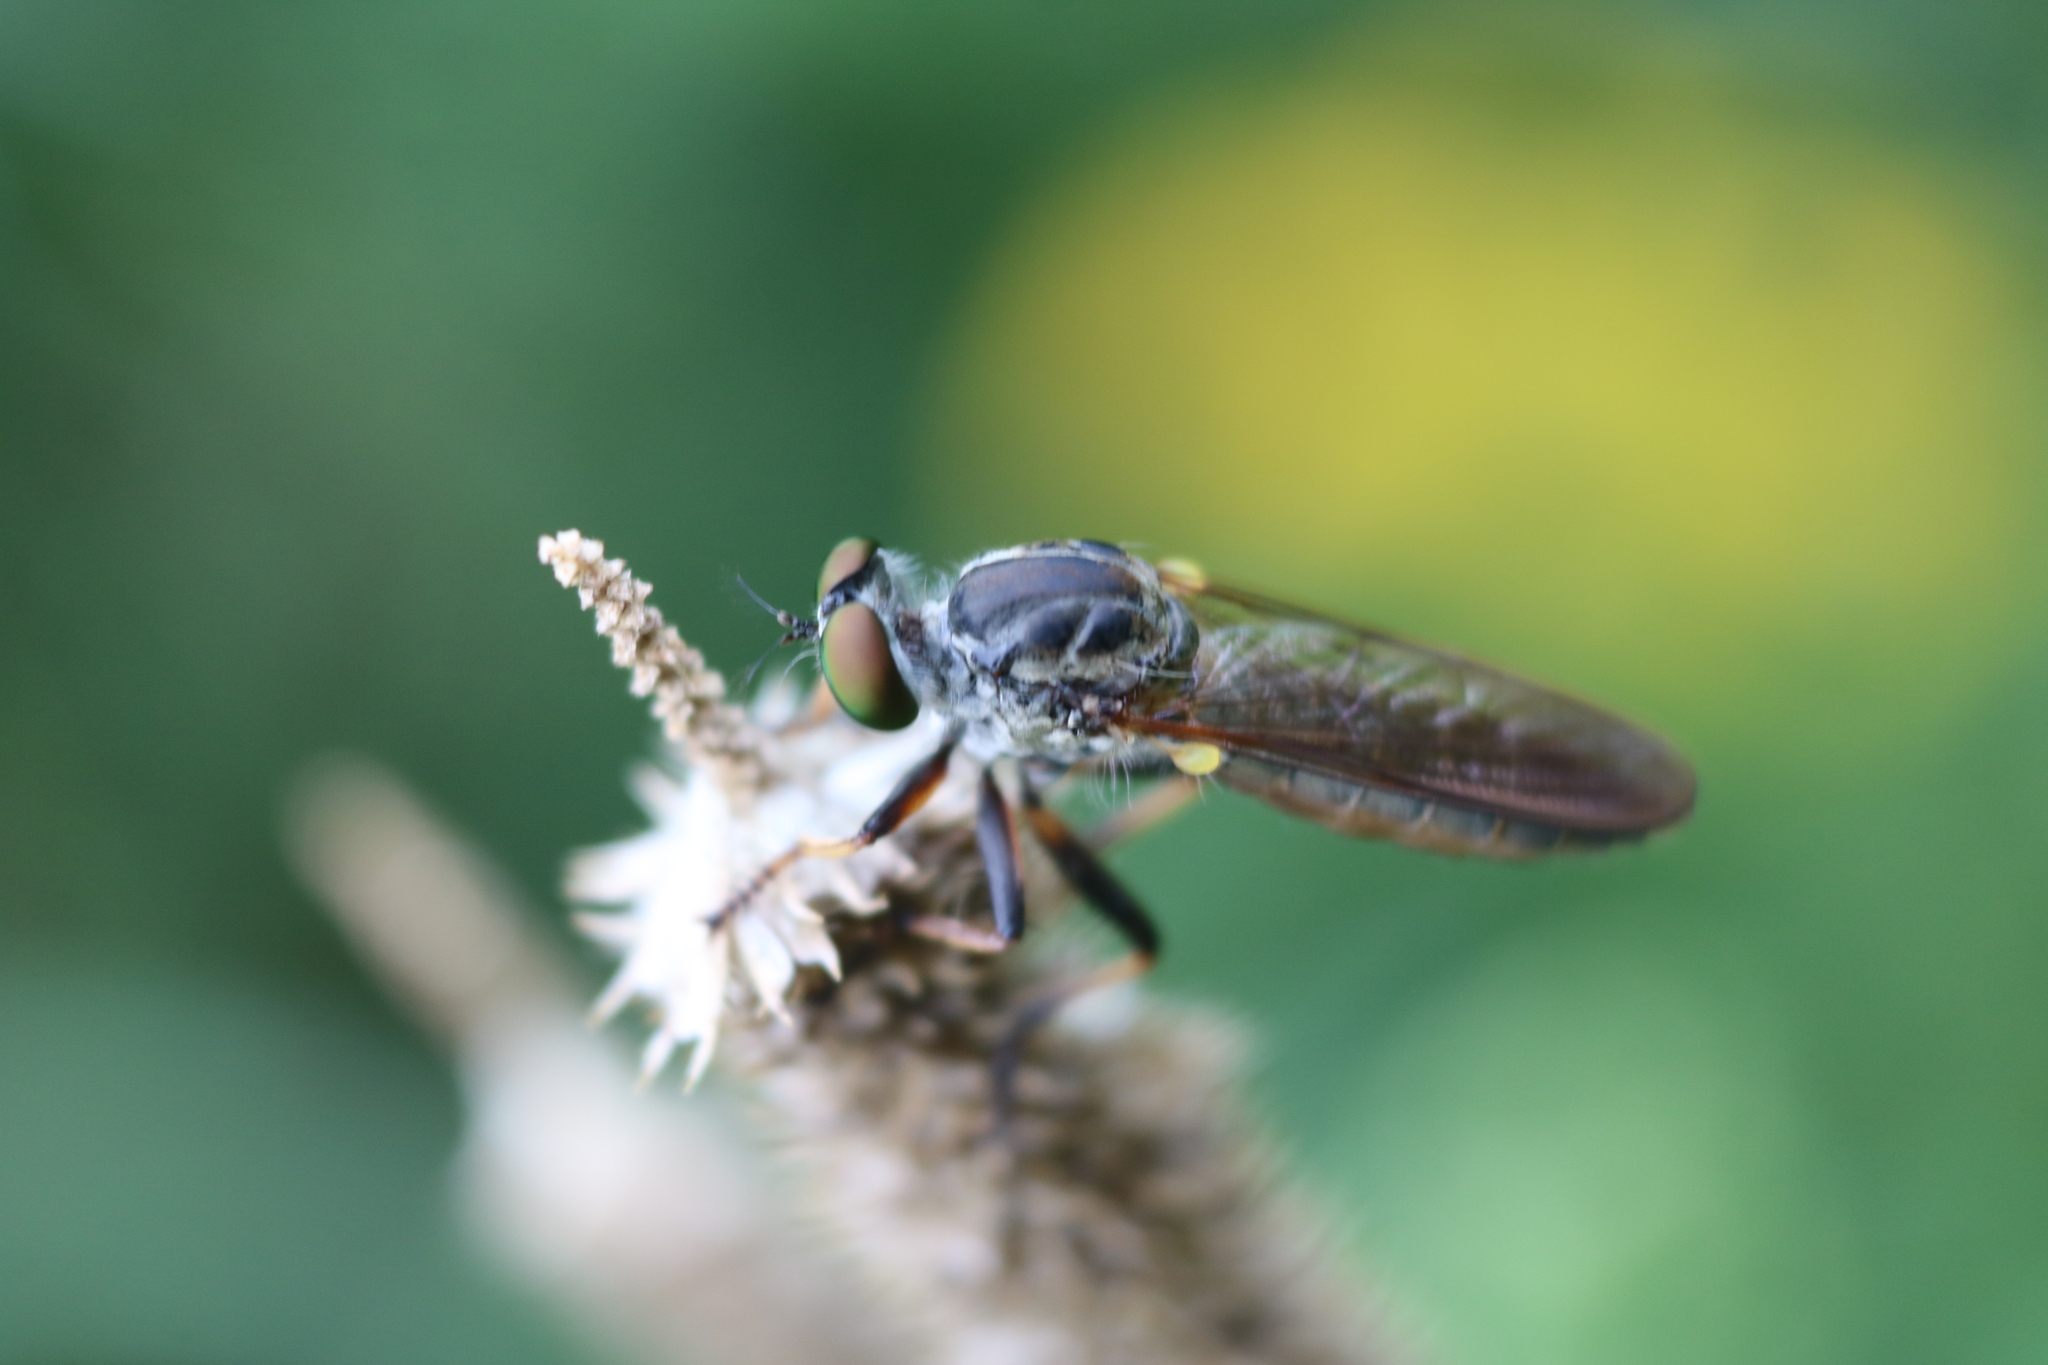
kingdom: Animalia
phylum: Arthropoda
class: Insecta
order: Diptera
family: Asilidae
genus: Ommatius
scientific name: Ommatius tibialis
